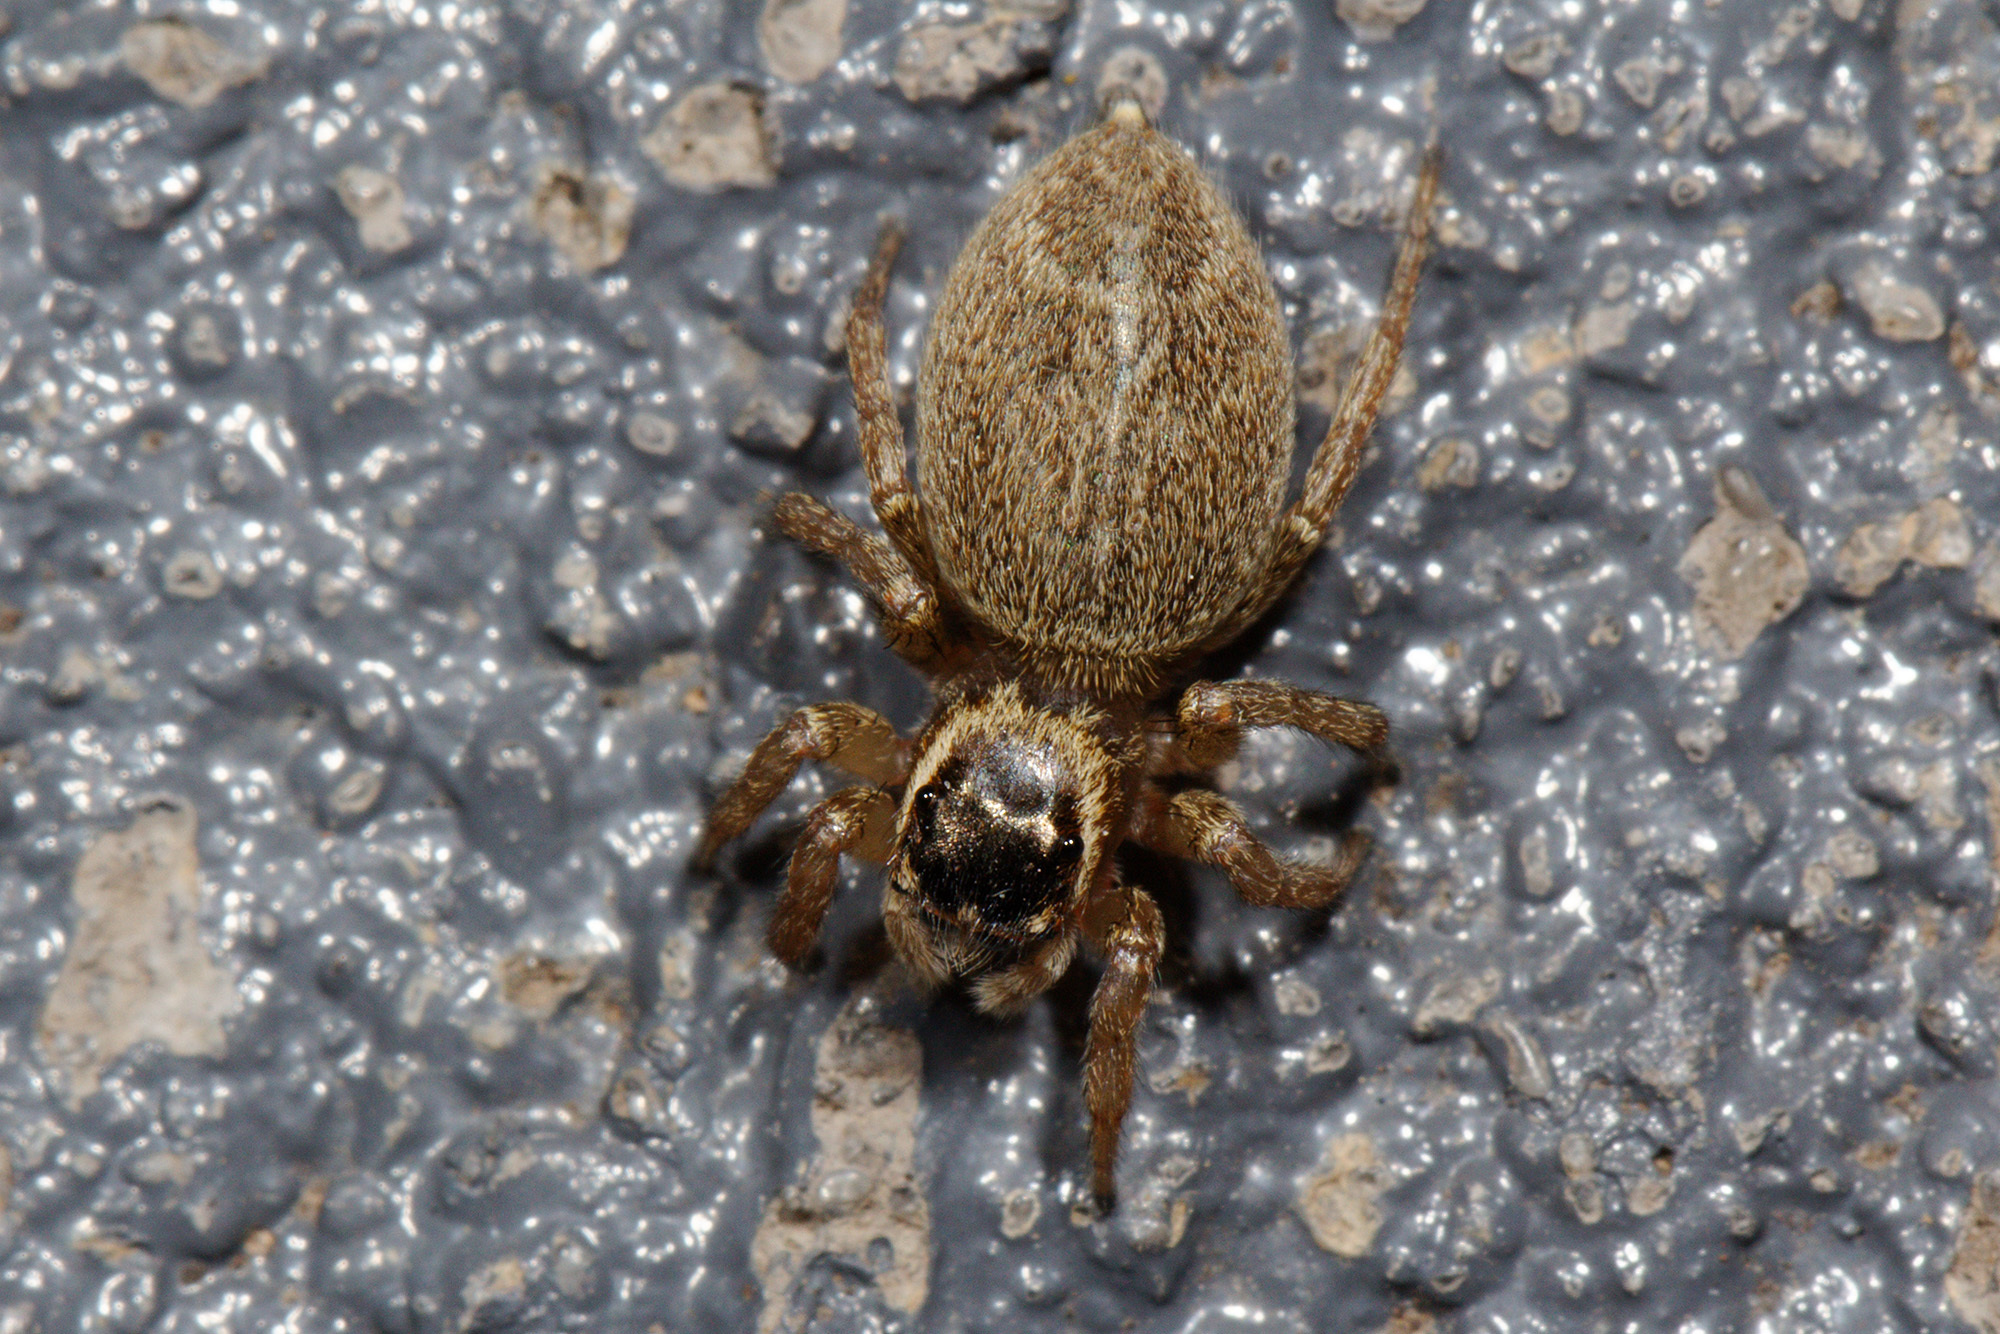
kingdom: Animalia
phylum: Arthropoda
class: Arachnida
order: Araneae
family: Salticidae
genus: Maratus
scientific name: Maratus griseus
